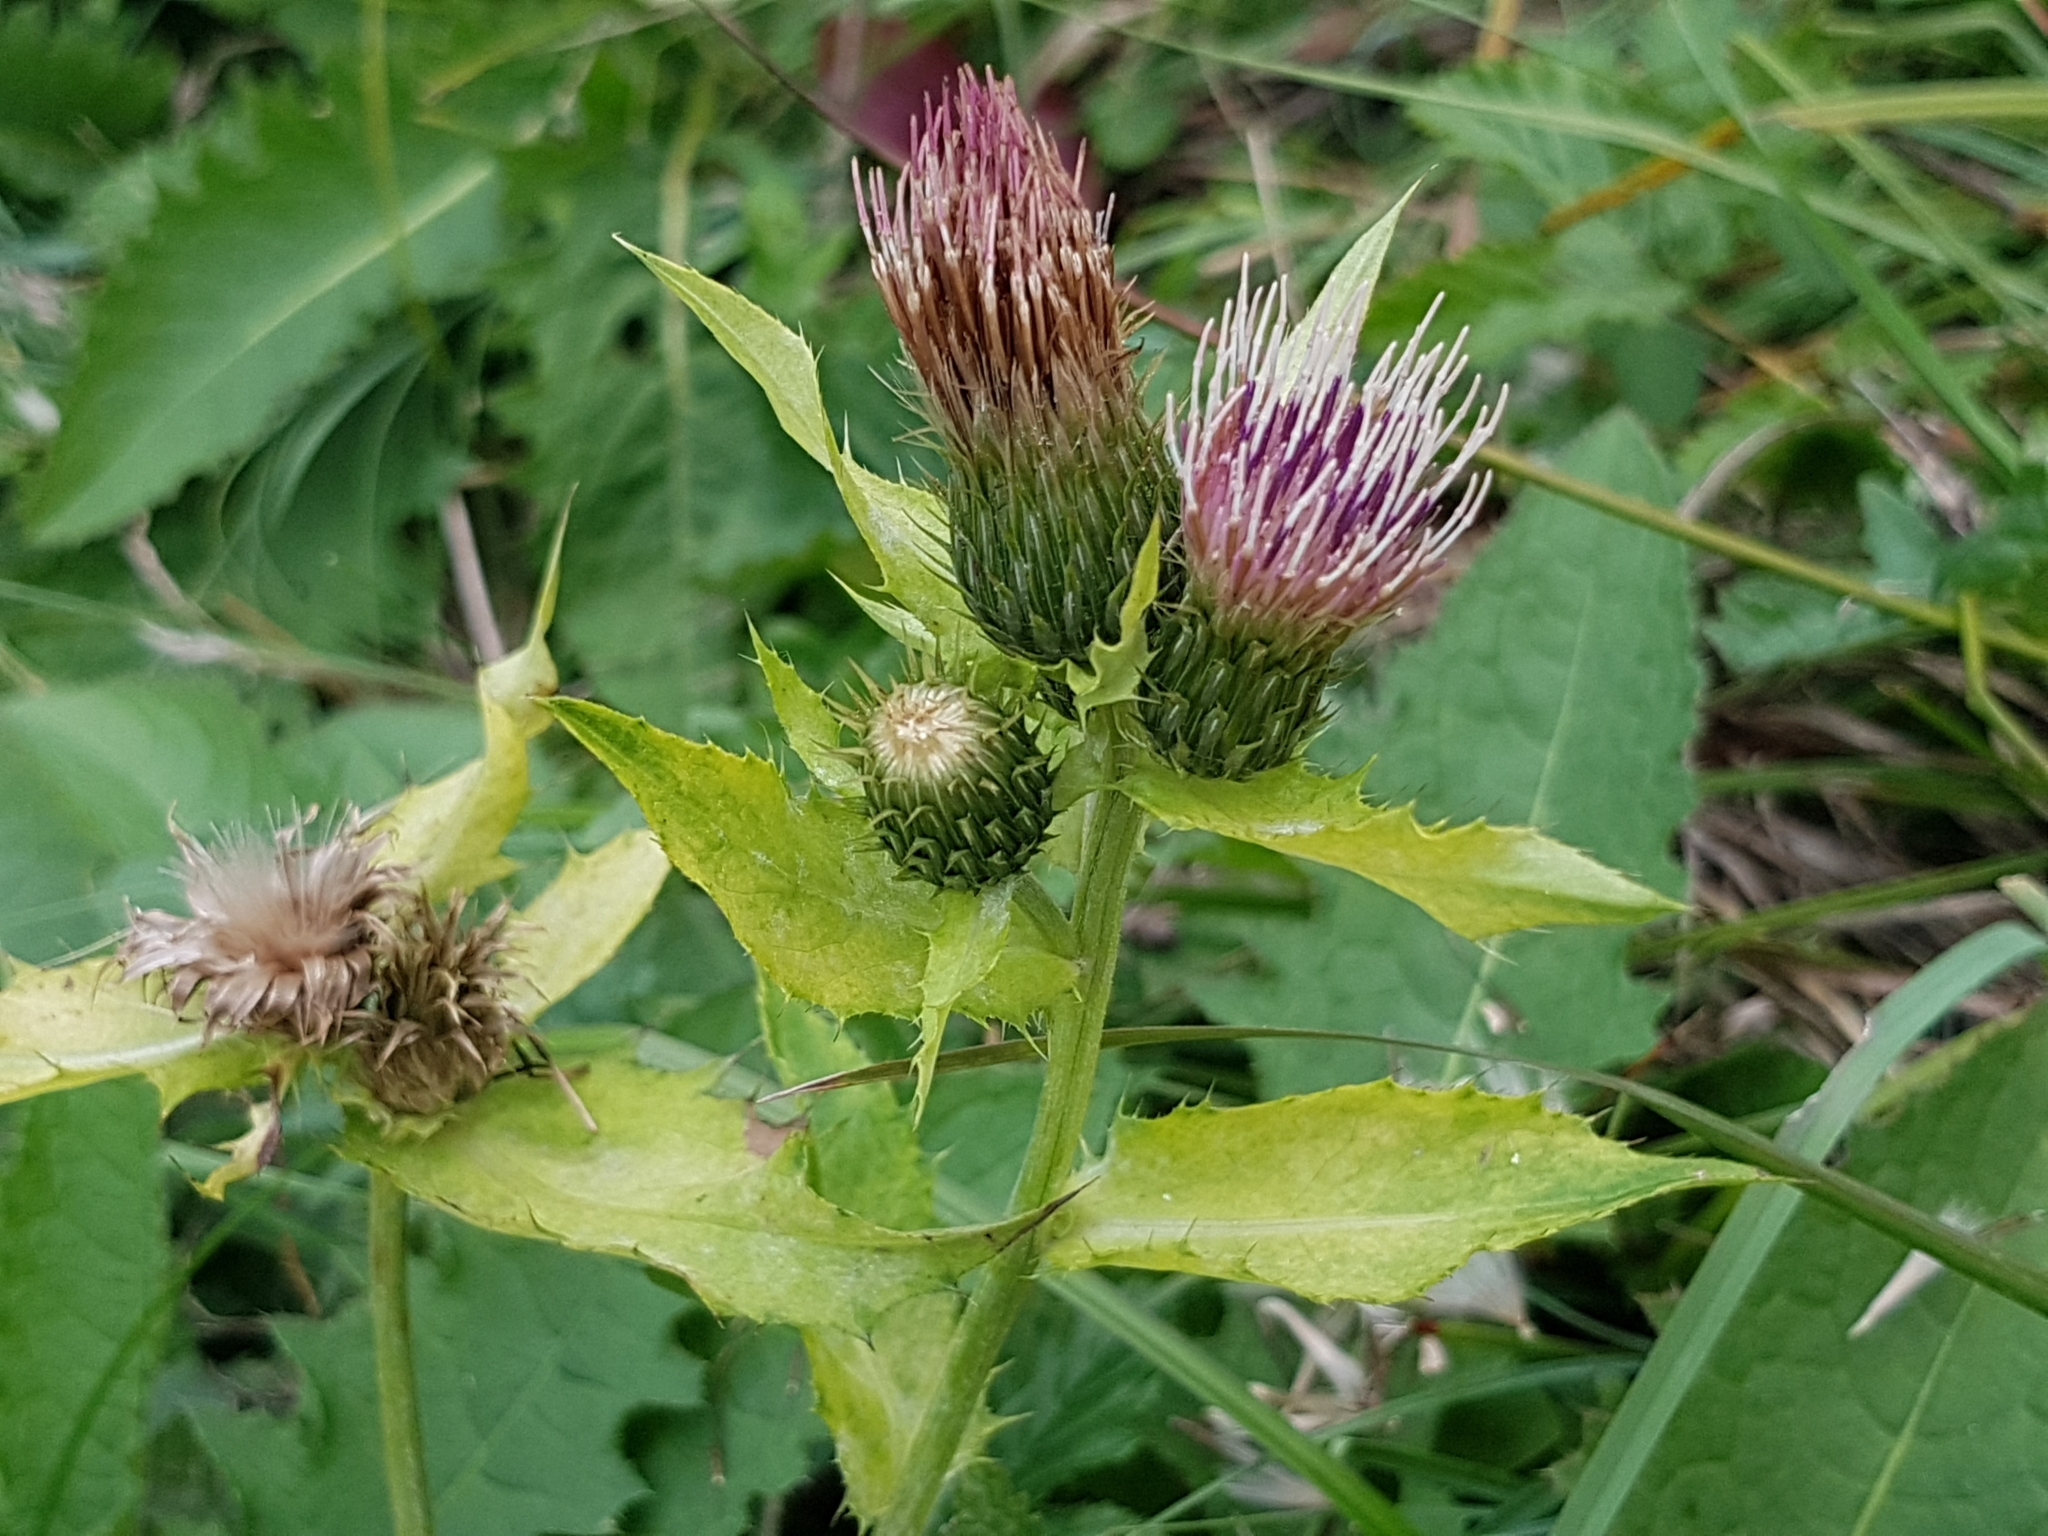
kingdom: Plantae
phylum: Tracheophyta
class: Magnoliopsida
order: Asterales
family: Asteraceae
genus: Cirsium
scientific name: Cirsium oleraceum
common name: Cabbage thistle
